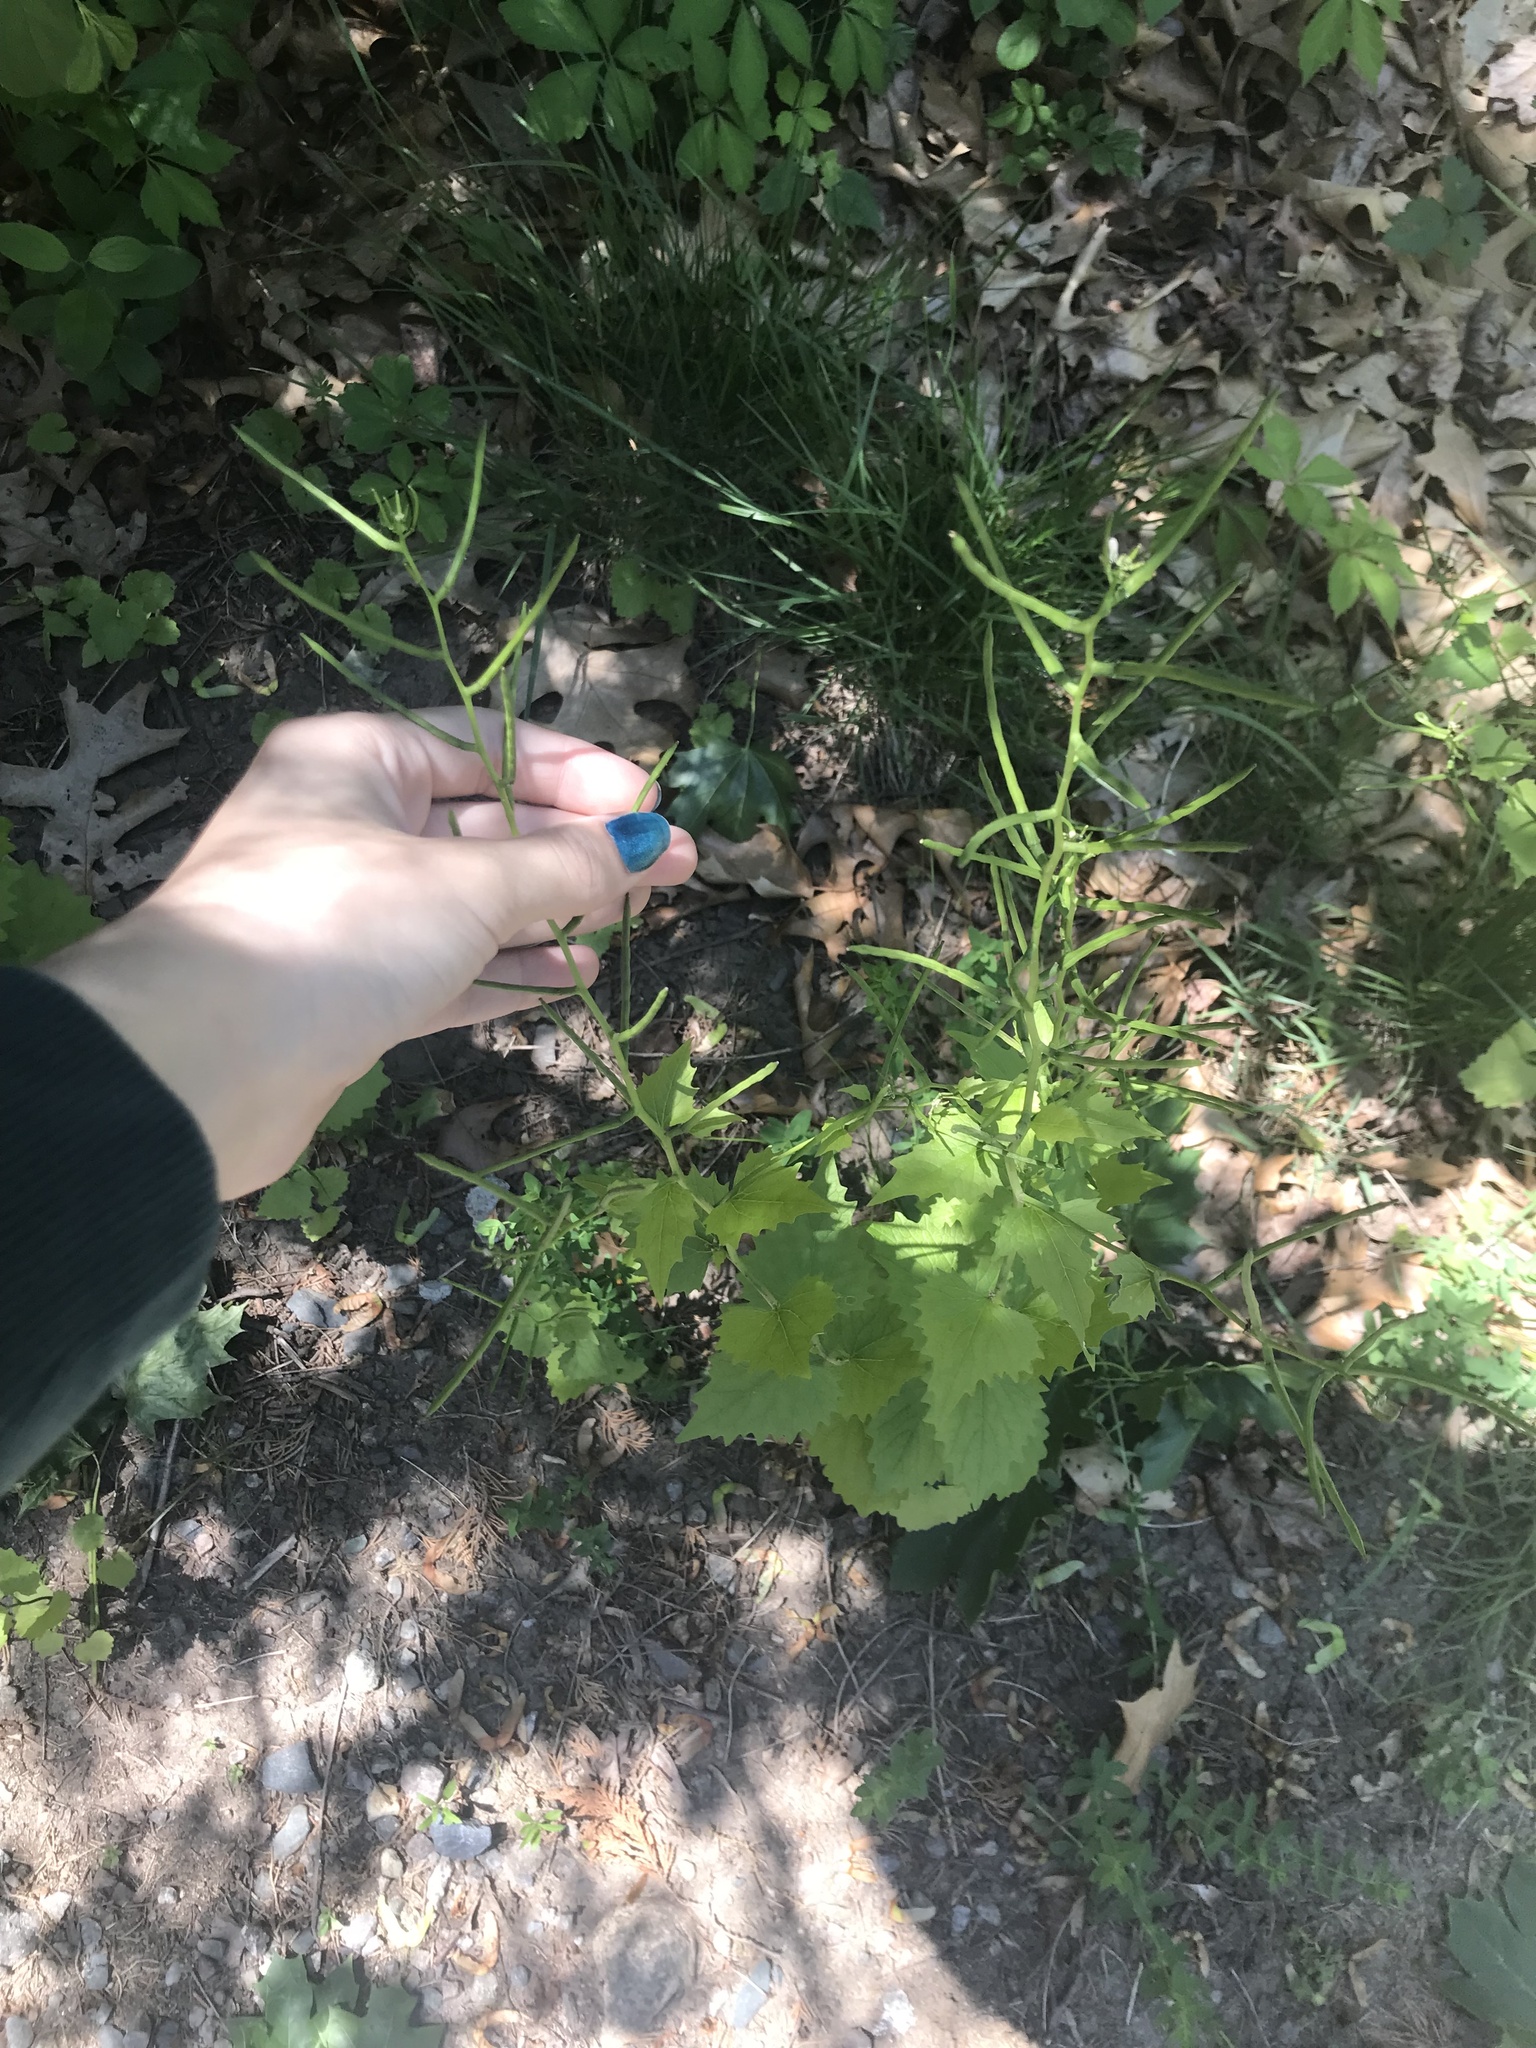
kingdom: Plantae
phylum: Tracheophyta
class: Magnoliopsida
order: Brassicales
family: Brassicaceae
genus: Alliaria
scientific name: Alliaria petiolata
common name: Garlic mustard
